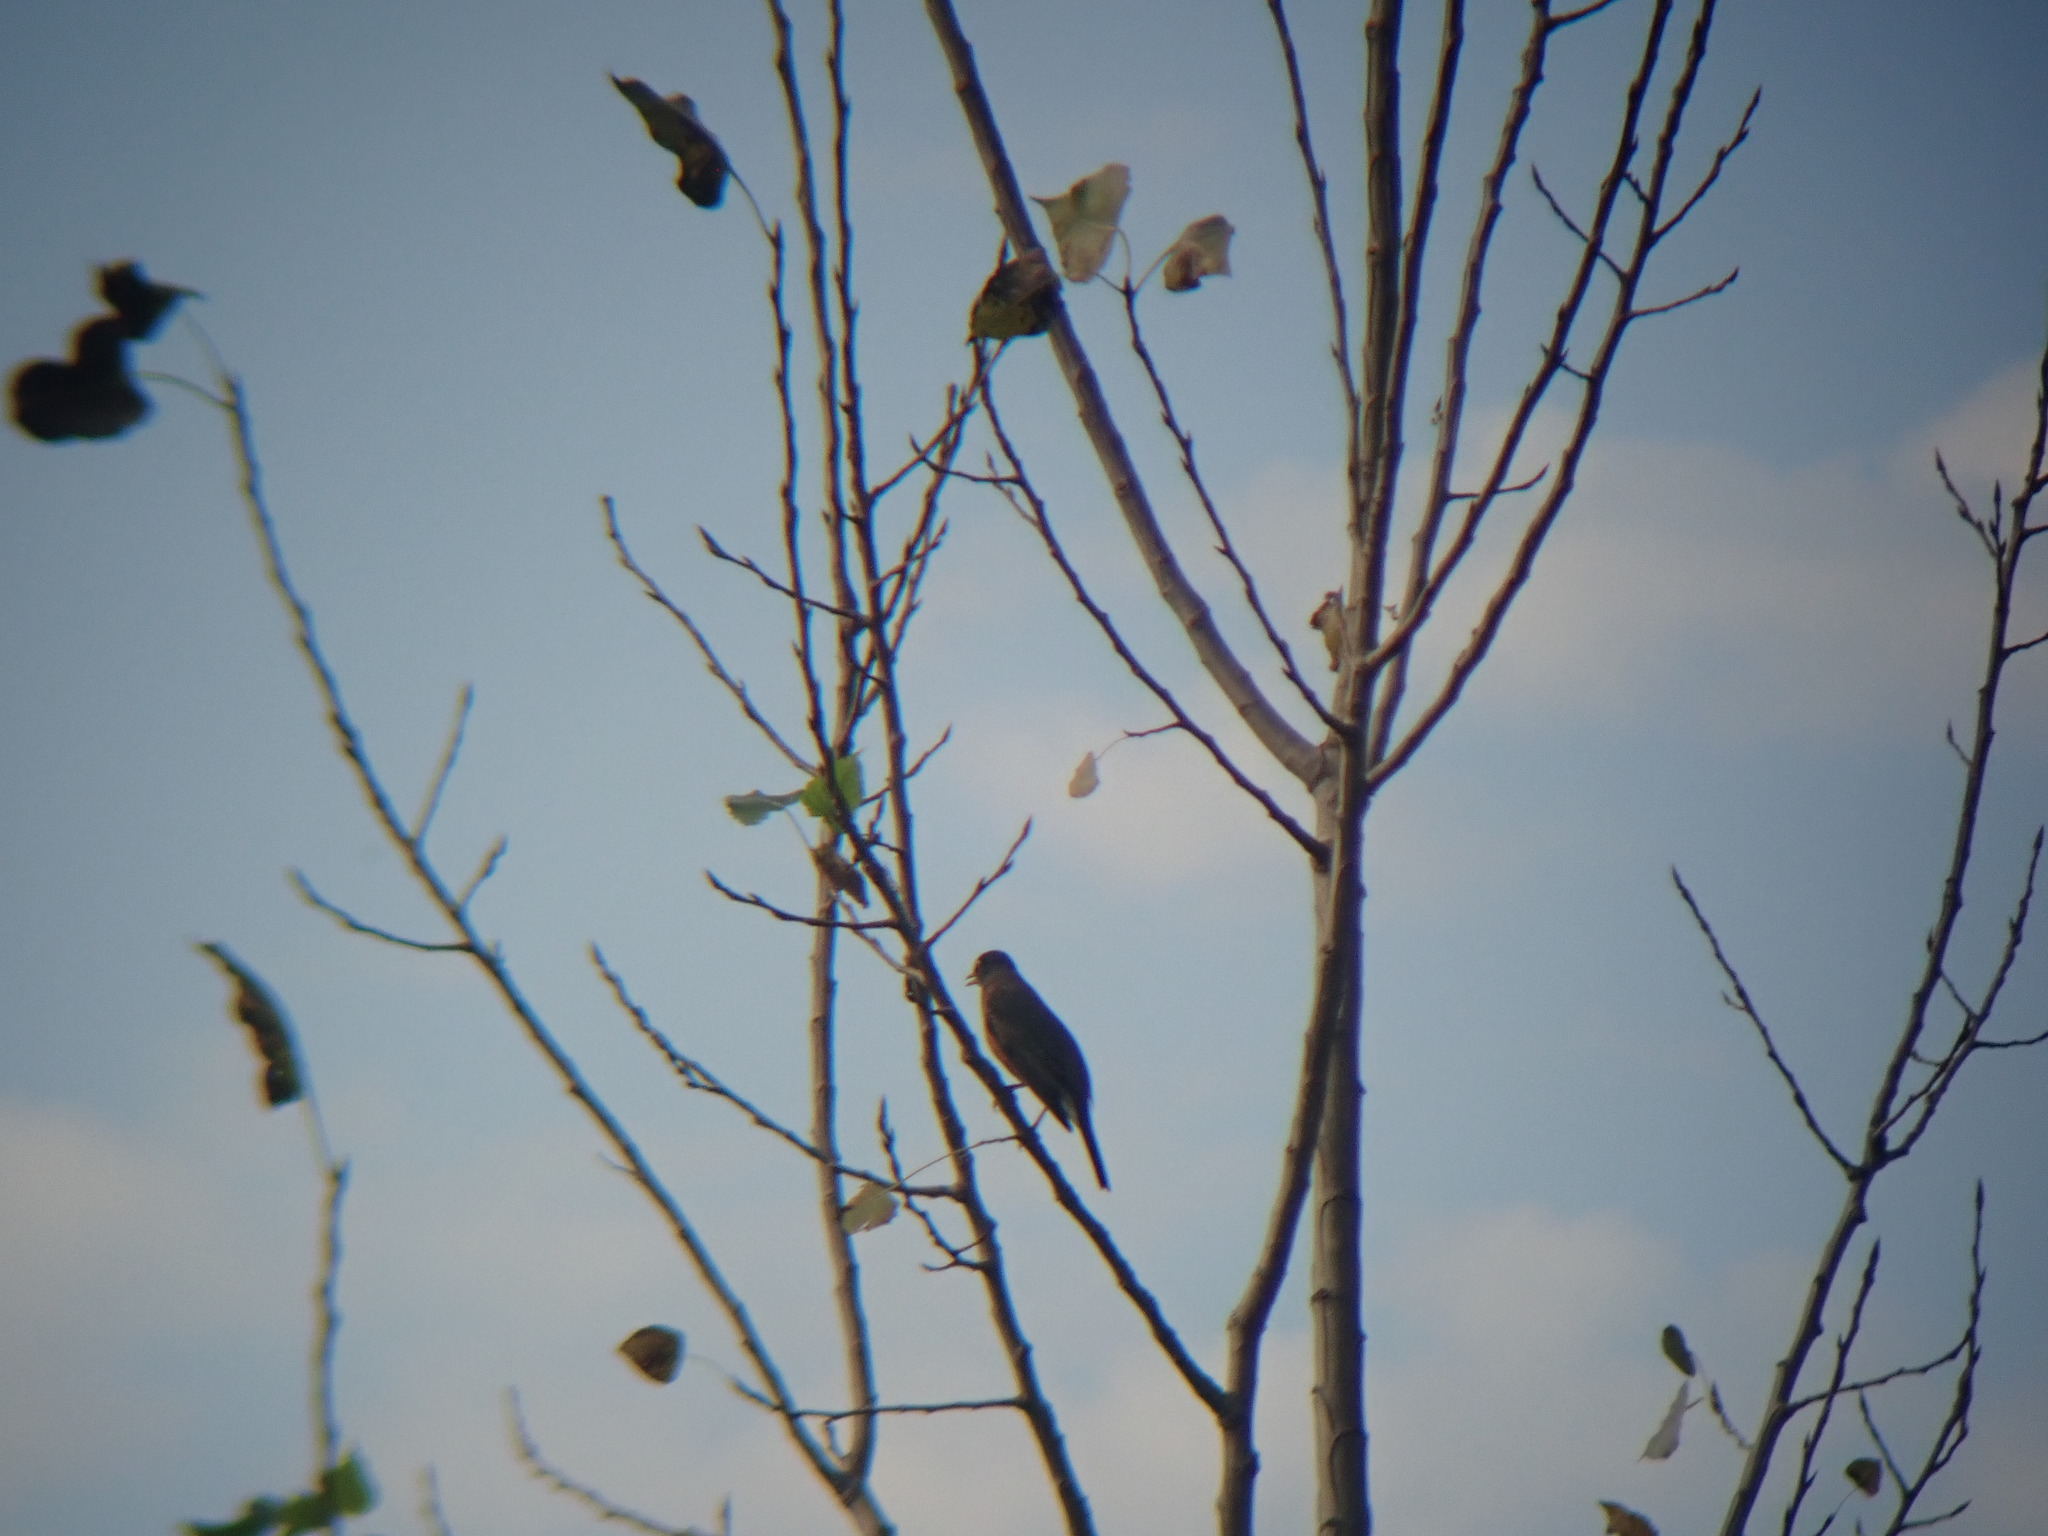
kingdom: Animalia
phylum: Chordata
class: Aves
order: Passeriformes
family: Turdidae
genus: Turdus
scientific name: Turdus migratorius
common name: American robin
